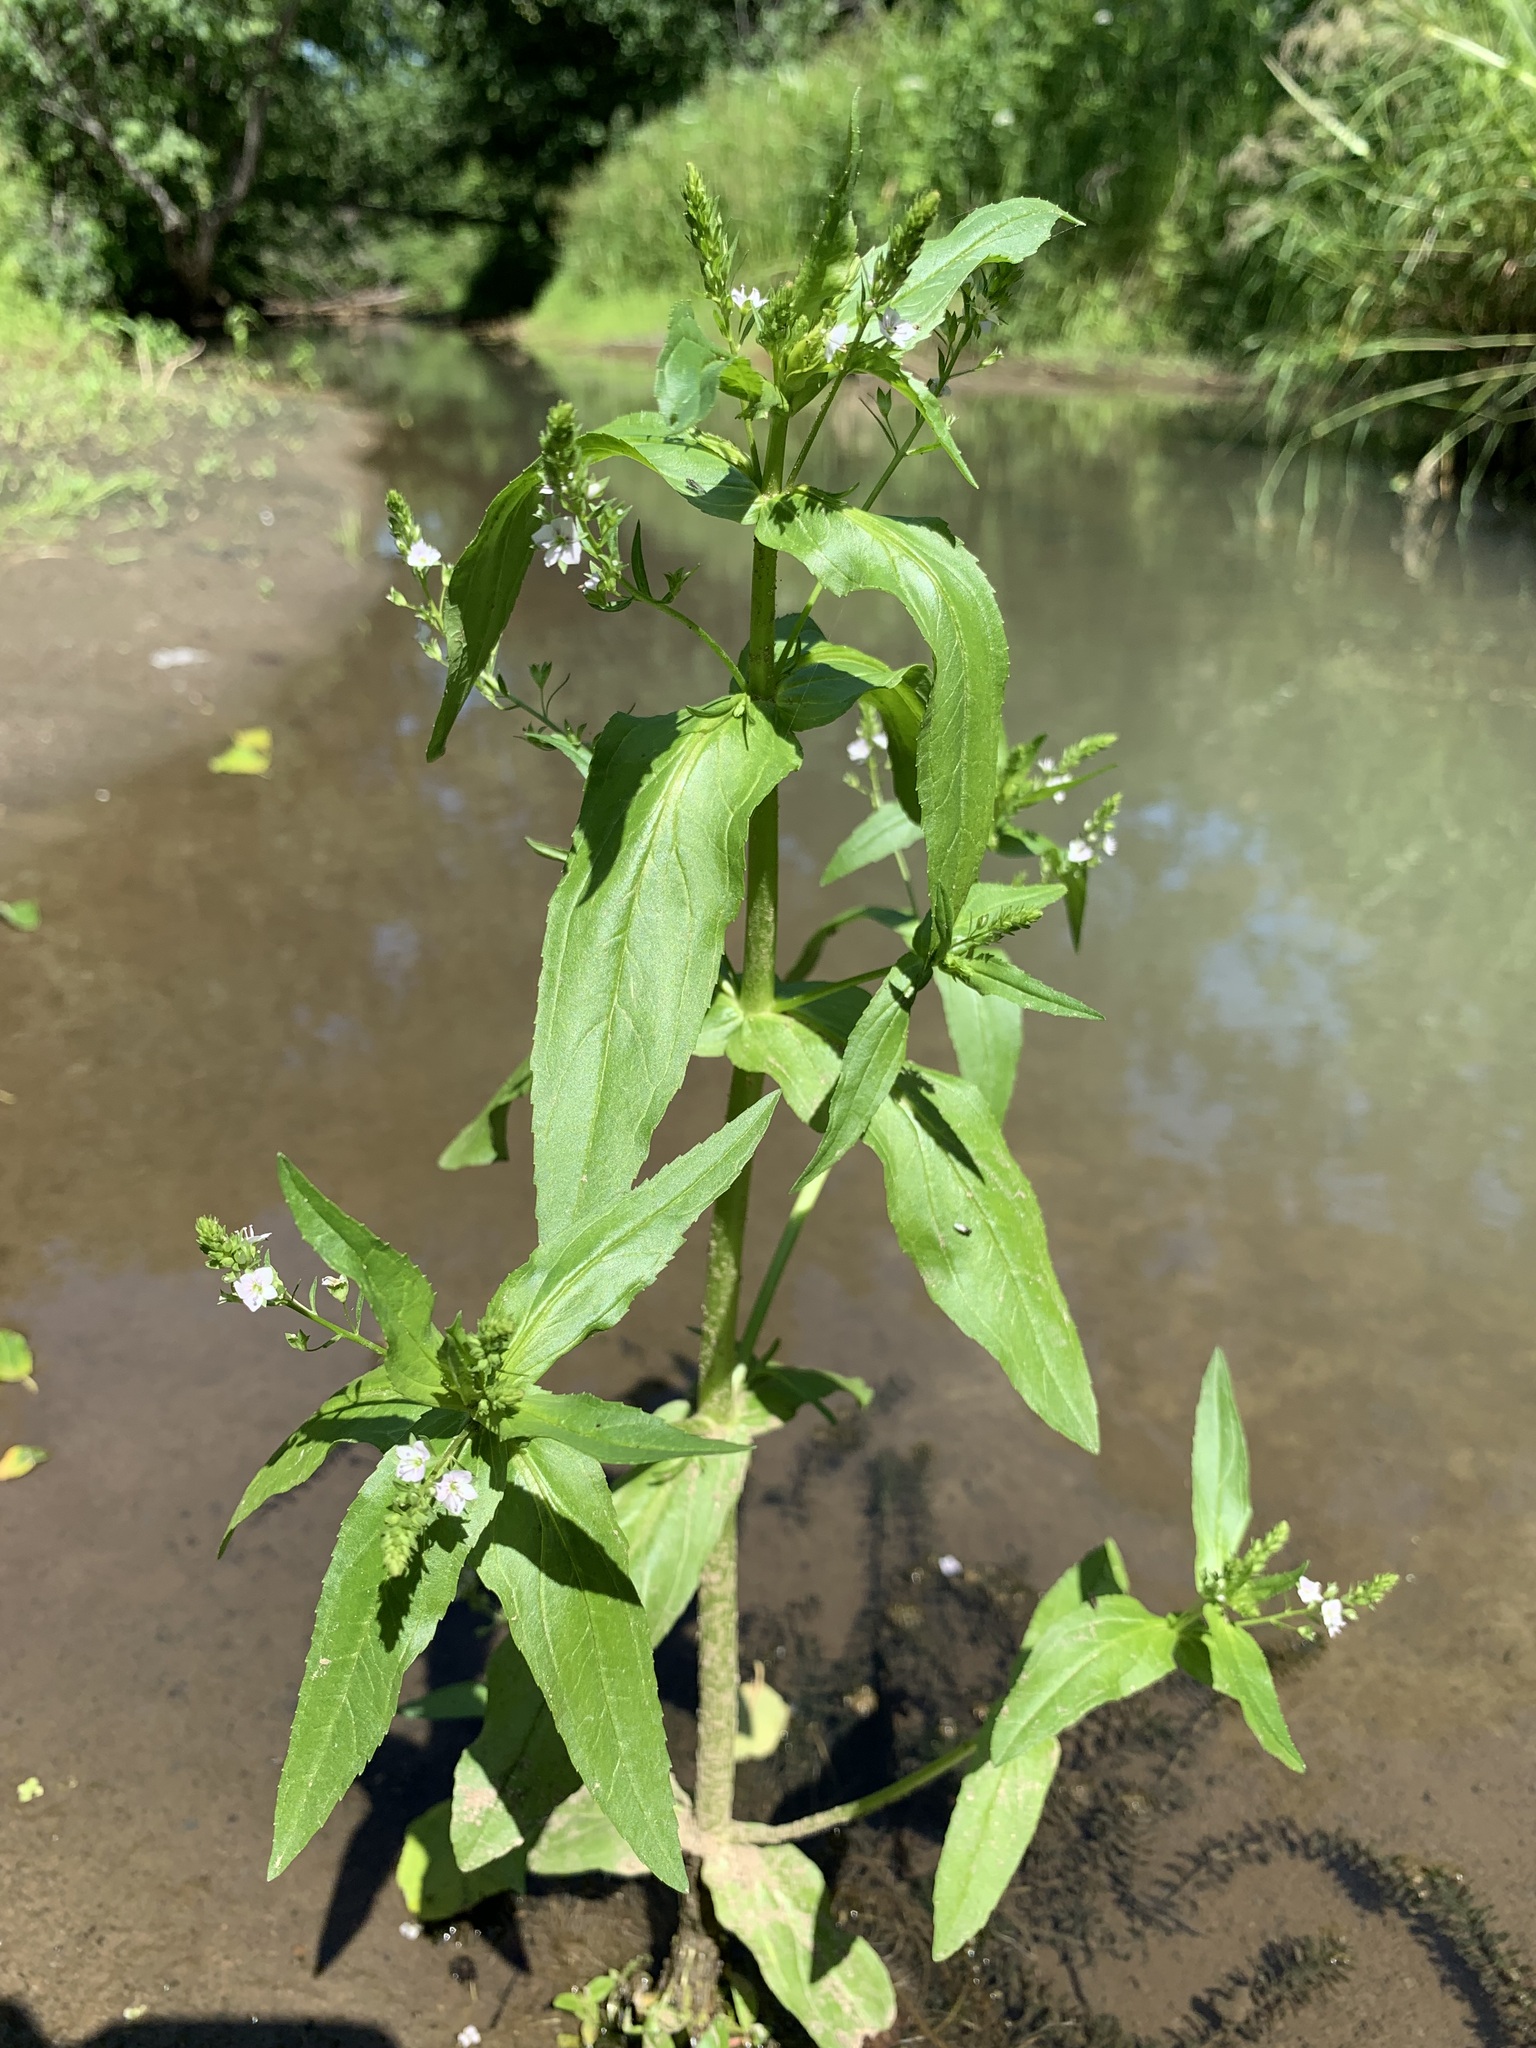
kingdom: Plantae
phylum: Tracheophyta
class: Magnoliopsida
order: Lamiales
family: Plantaginaceae
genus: Veronica
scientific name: Veronica anagallis-aquatica
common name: Water speedwell
